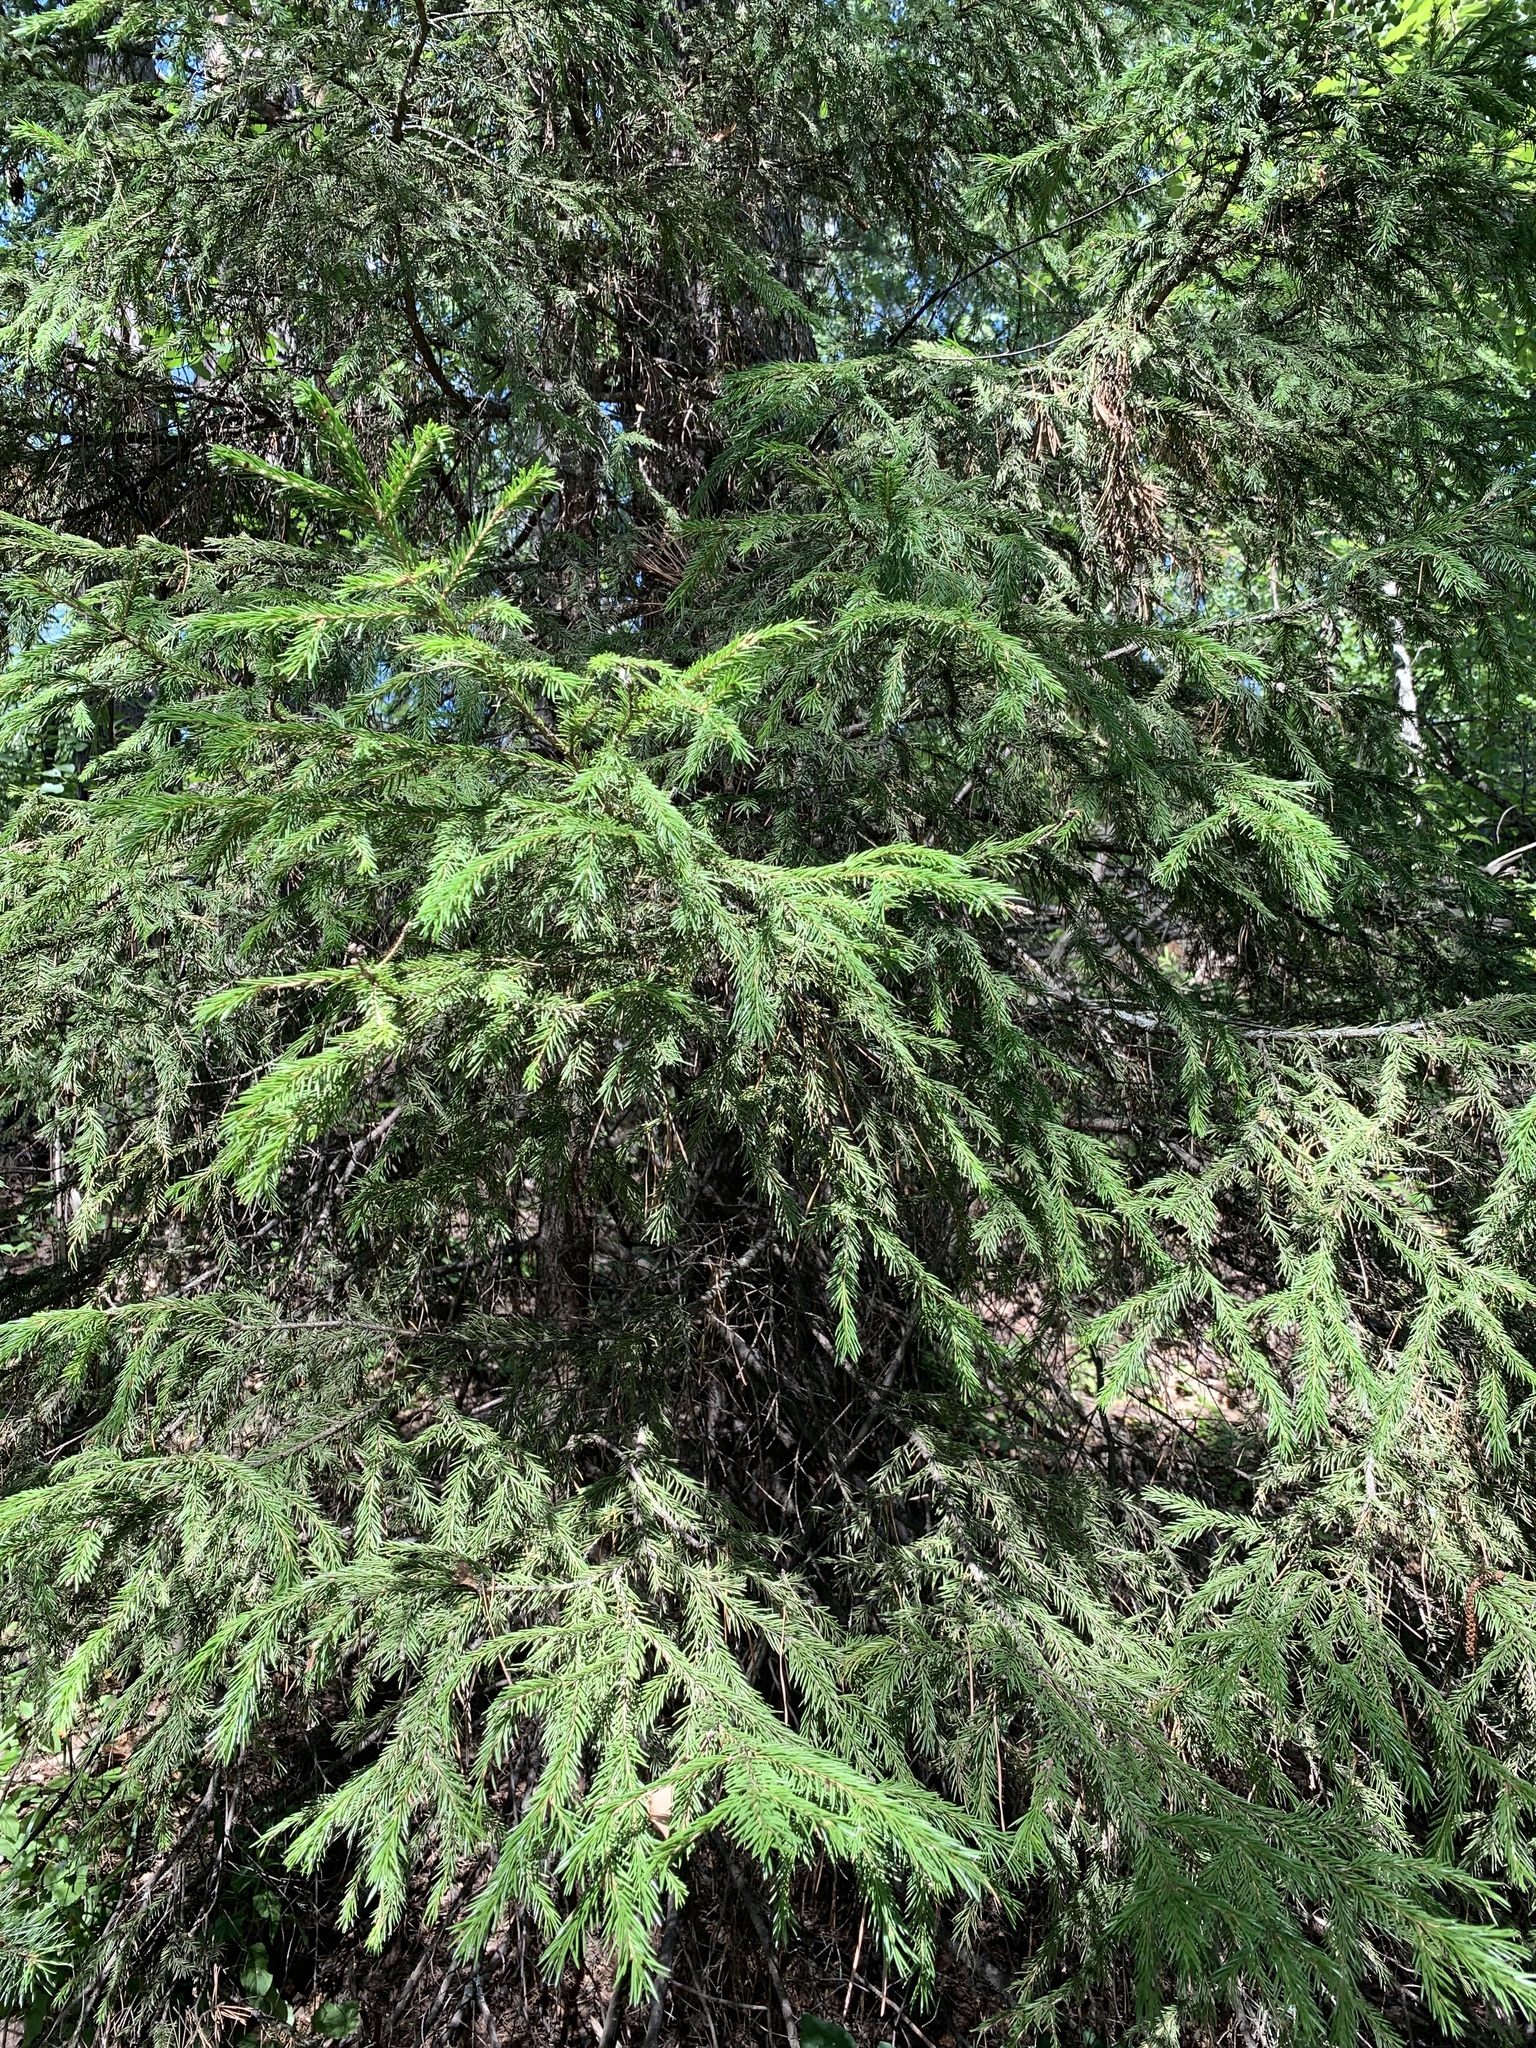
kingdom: Plantae
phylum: Tracheophyta
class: Pinopsida
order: Pinales
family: Pinaceae
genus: Picea
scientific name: Picea obovata
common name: Siberian spruce
